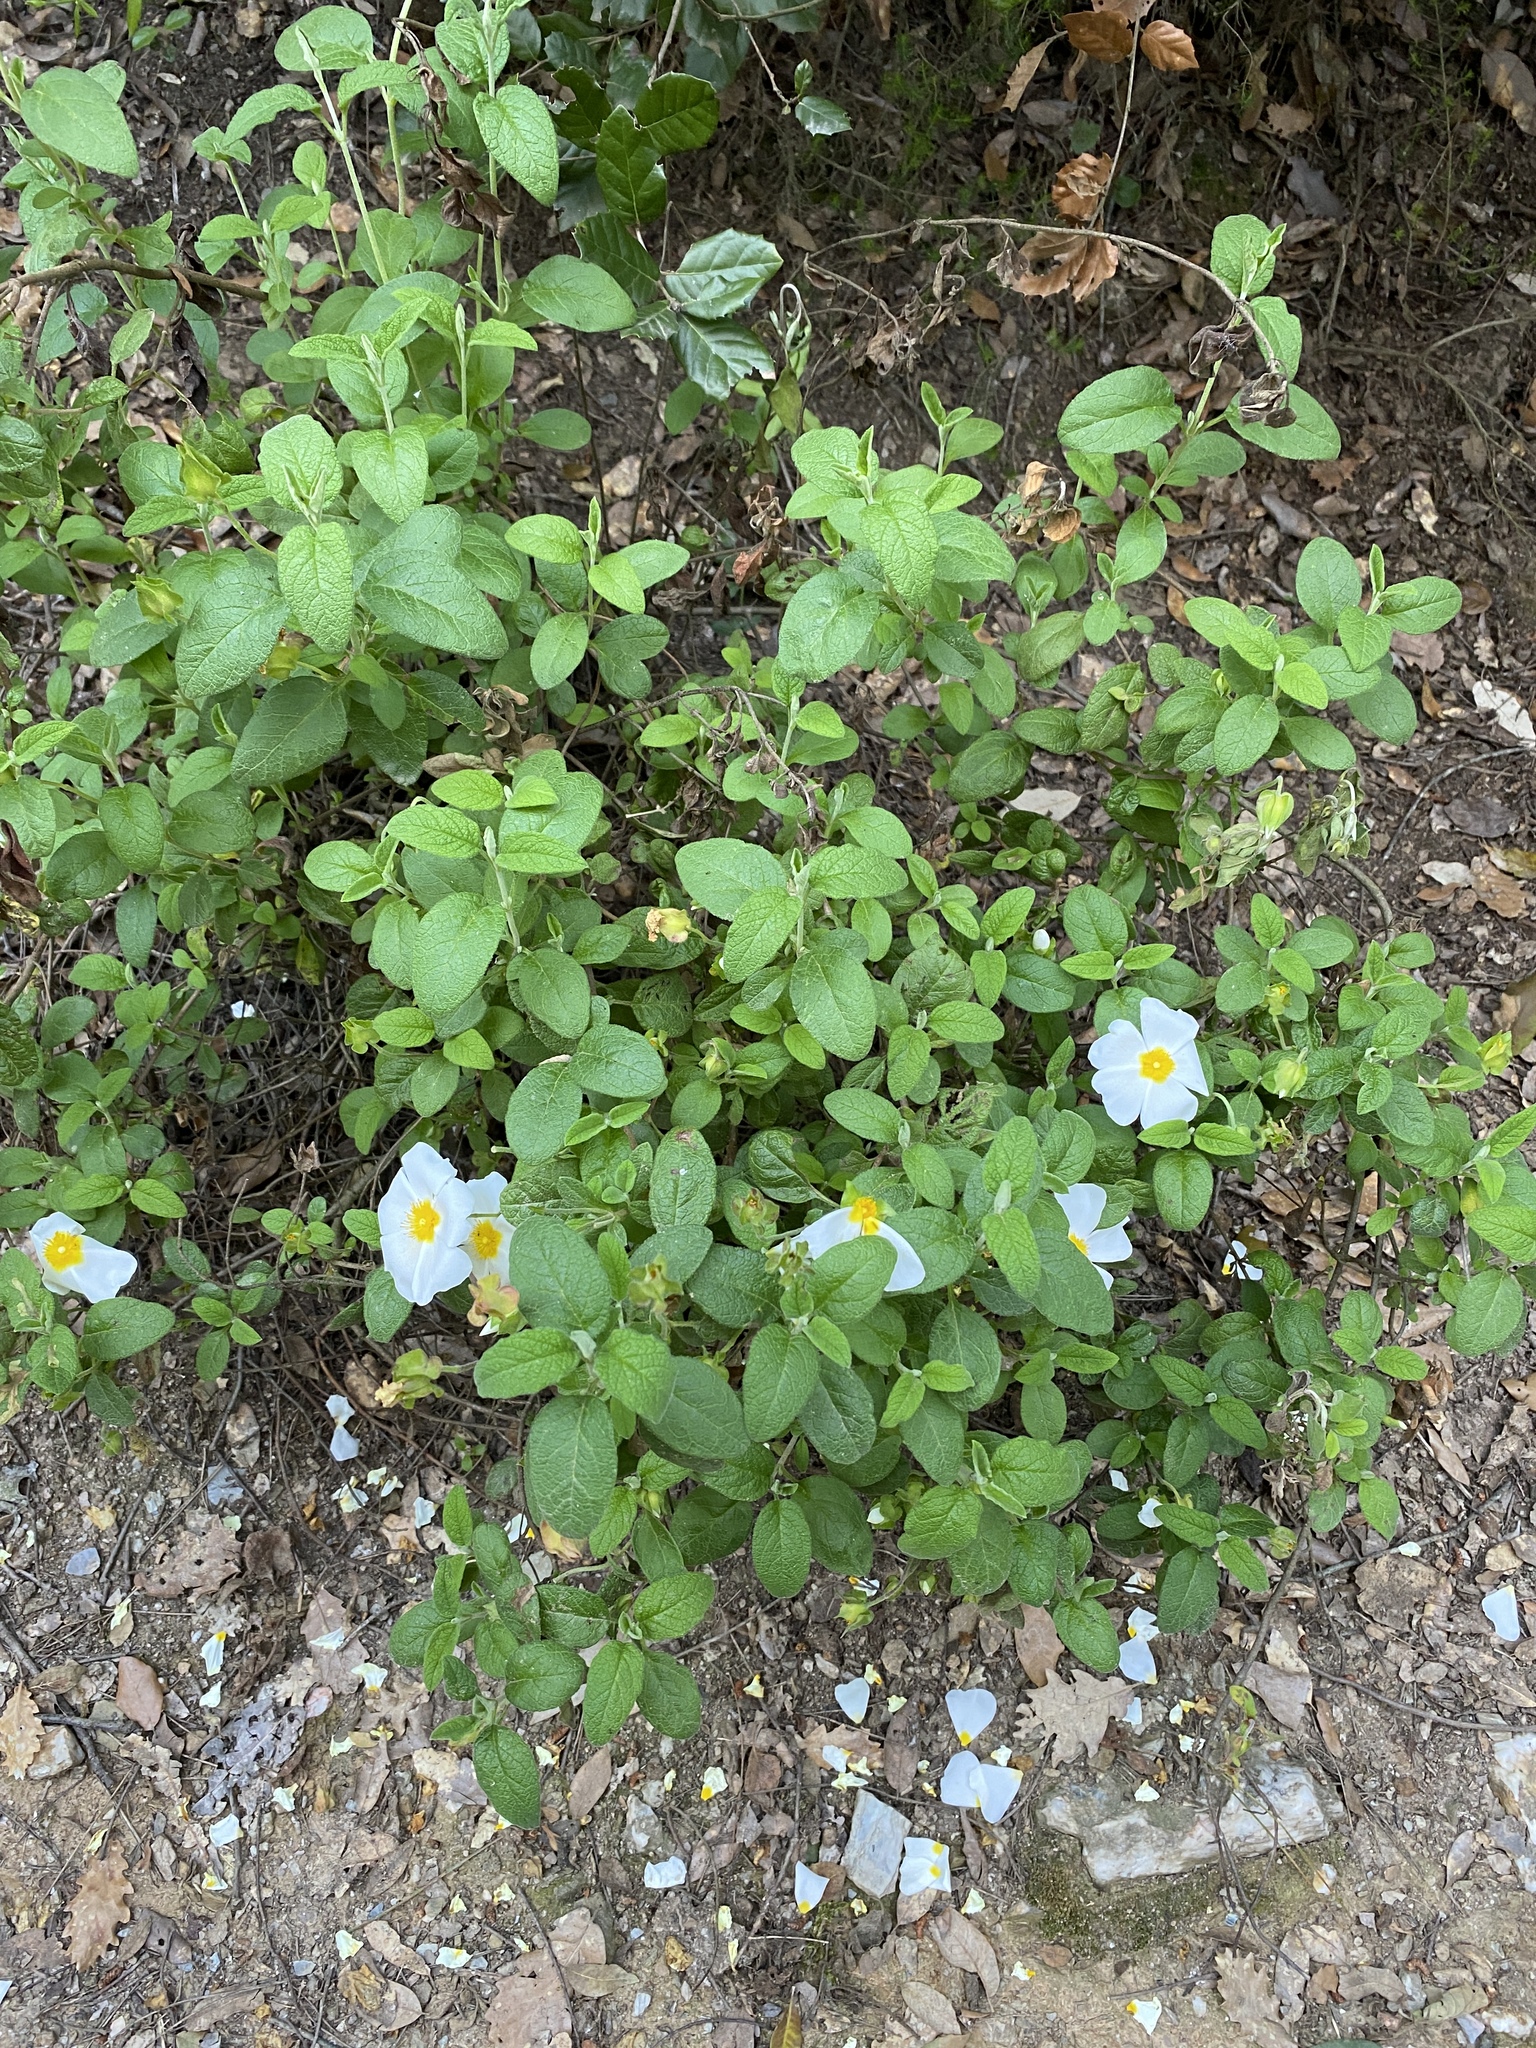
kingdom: Plantae
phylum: Tracheophyta
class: Magnoliopsida
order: Malvales
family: Cistaceae
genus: Cistus
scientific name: Cistus salviifolius
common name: Salvia cistus
